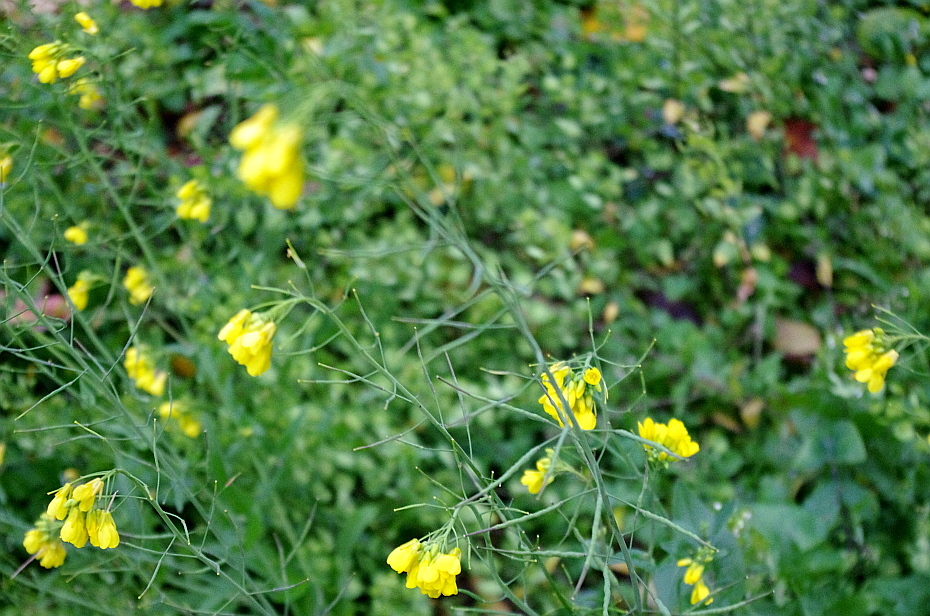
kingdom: Plantae
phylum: Tracheophyta
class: Magnoliopsida
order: Brassicales
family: Brassicaceae
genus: Brassica
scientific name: Brassica rapa
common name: Field mustard
